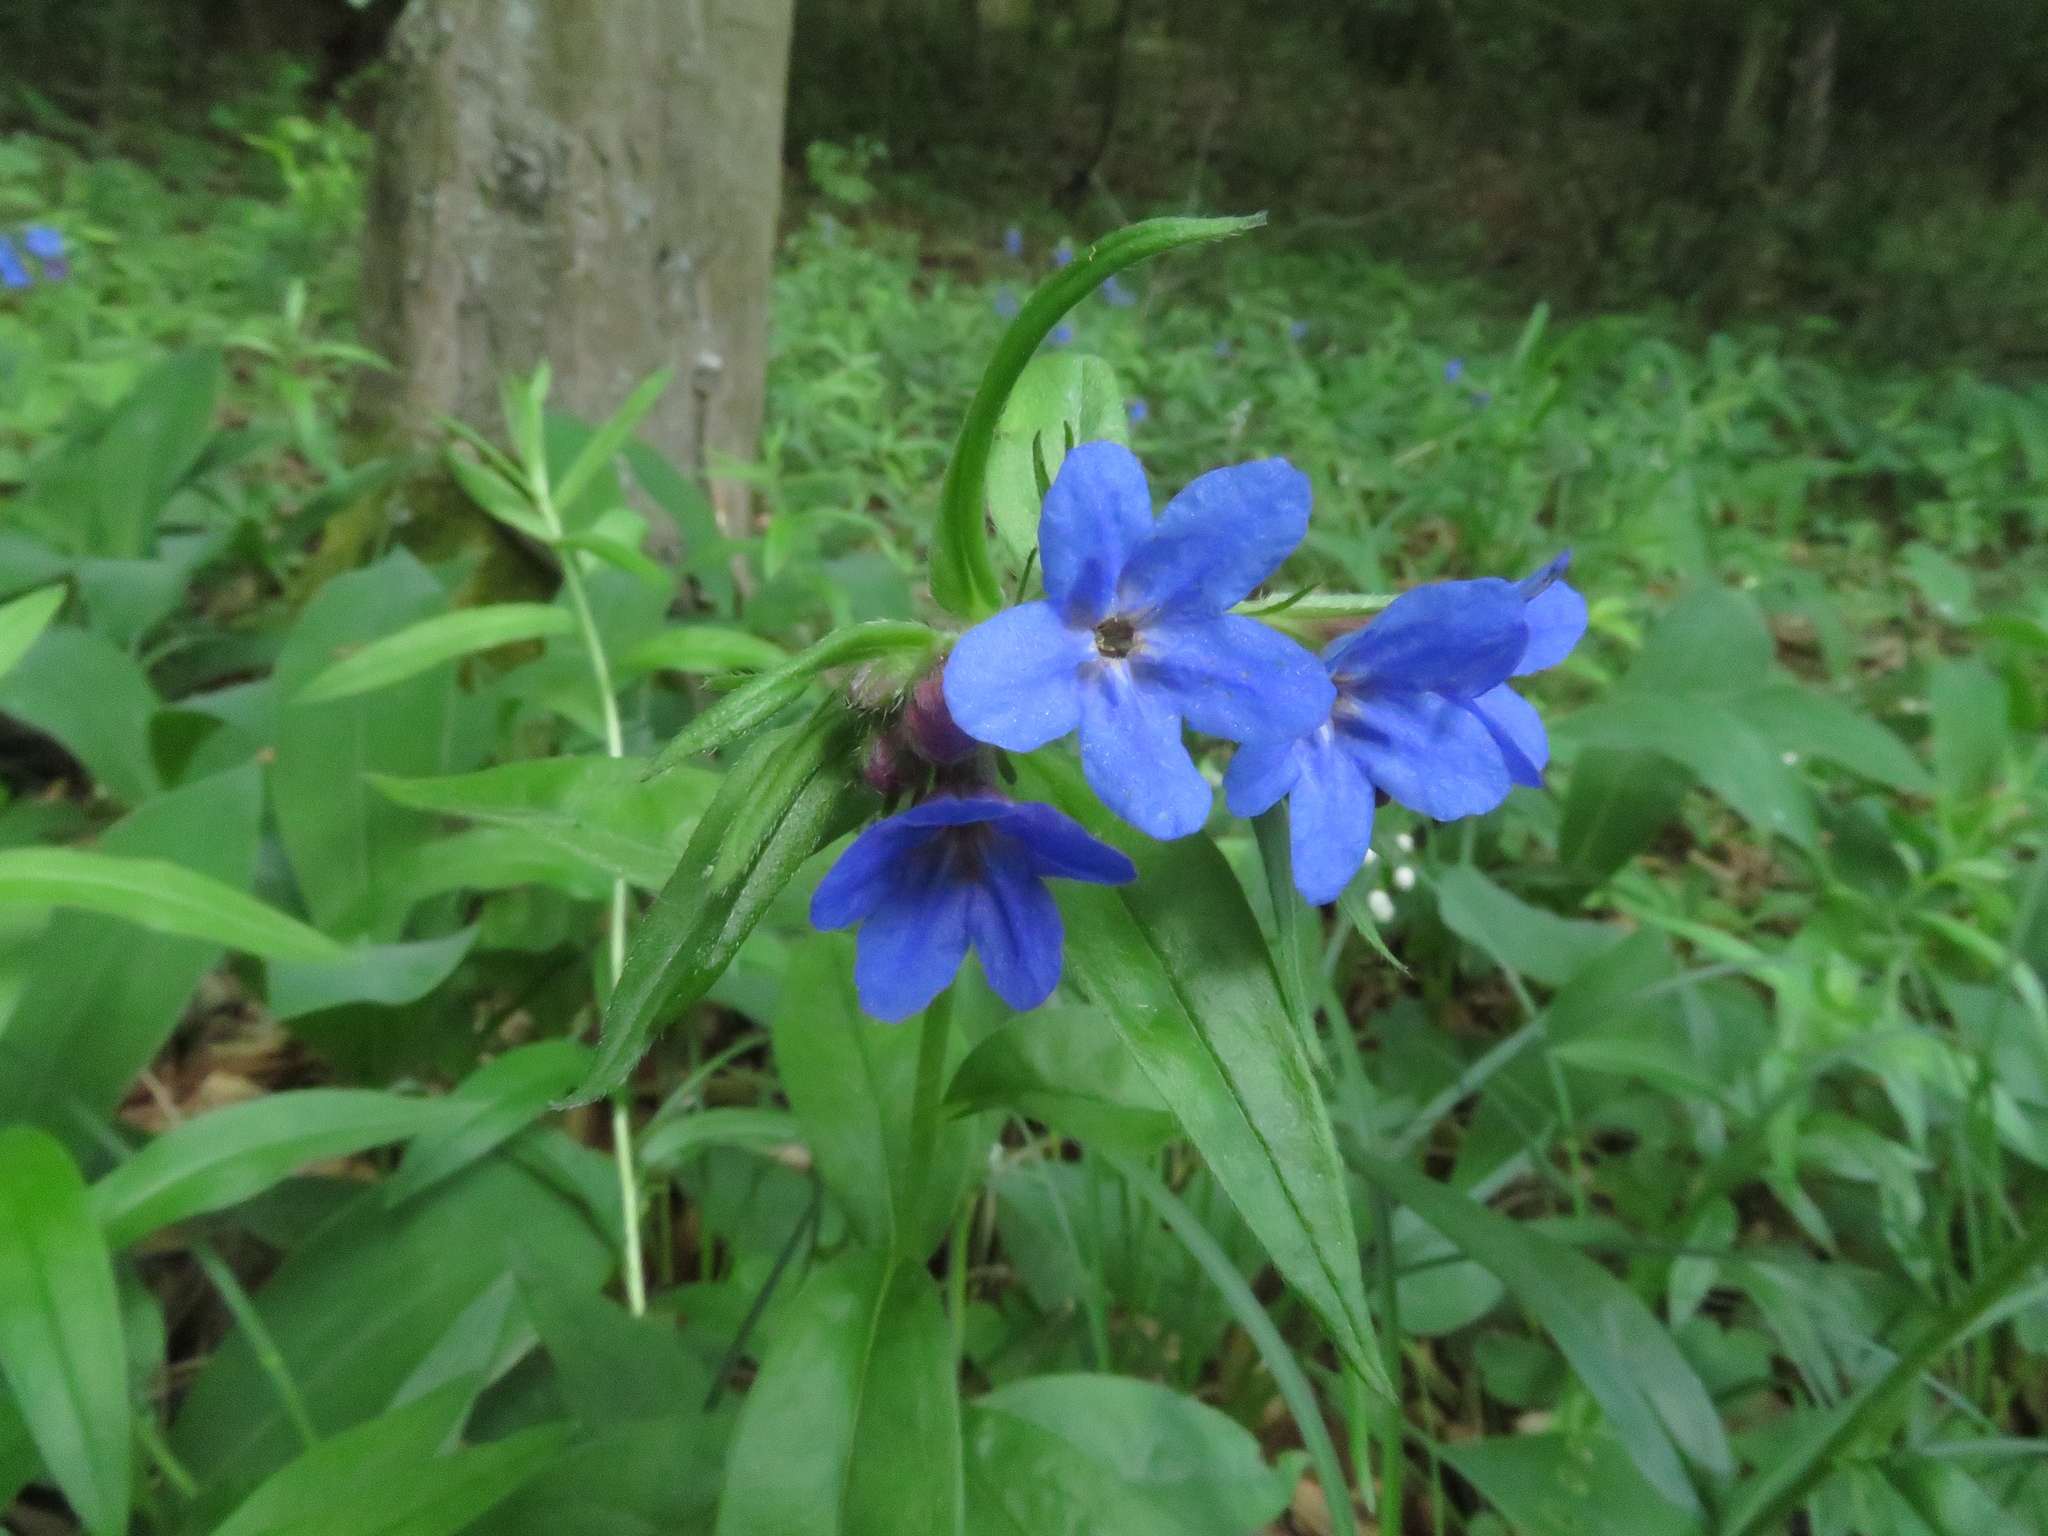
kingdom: Plantae
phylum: Tracheophyta
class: Magnoliopsida
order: Boraginales
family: Boraginaceae
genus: Aegonychon
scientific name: Aegonychon purpurocaeruleum
